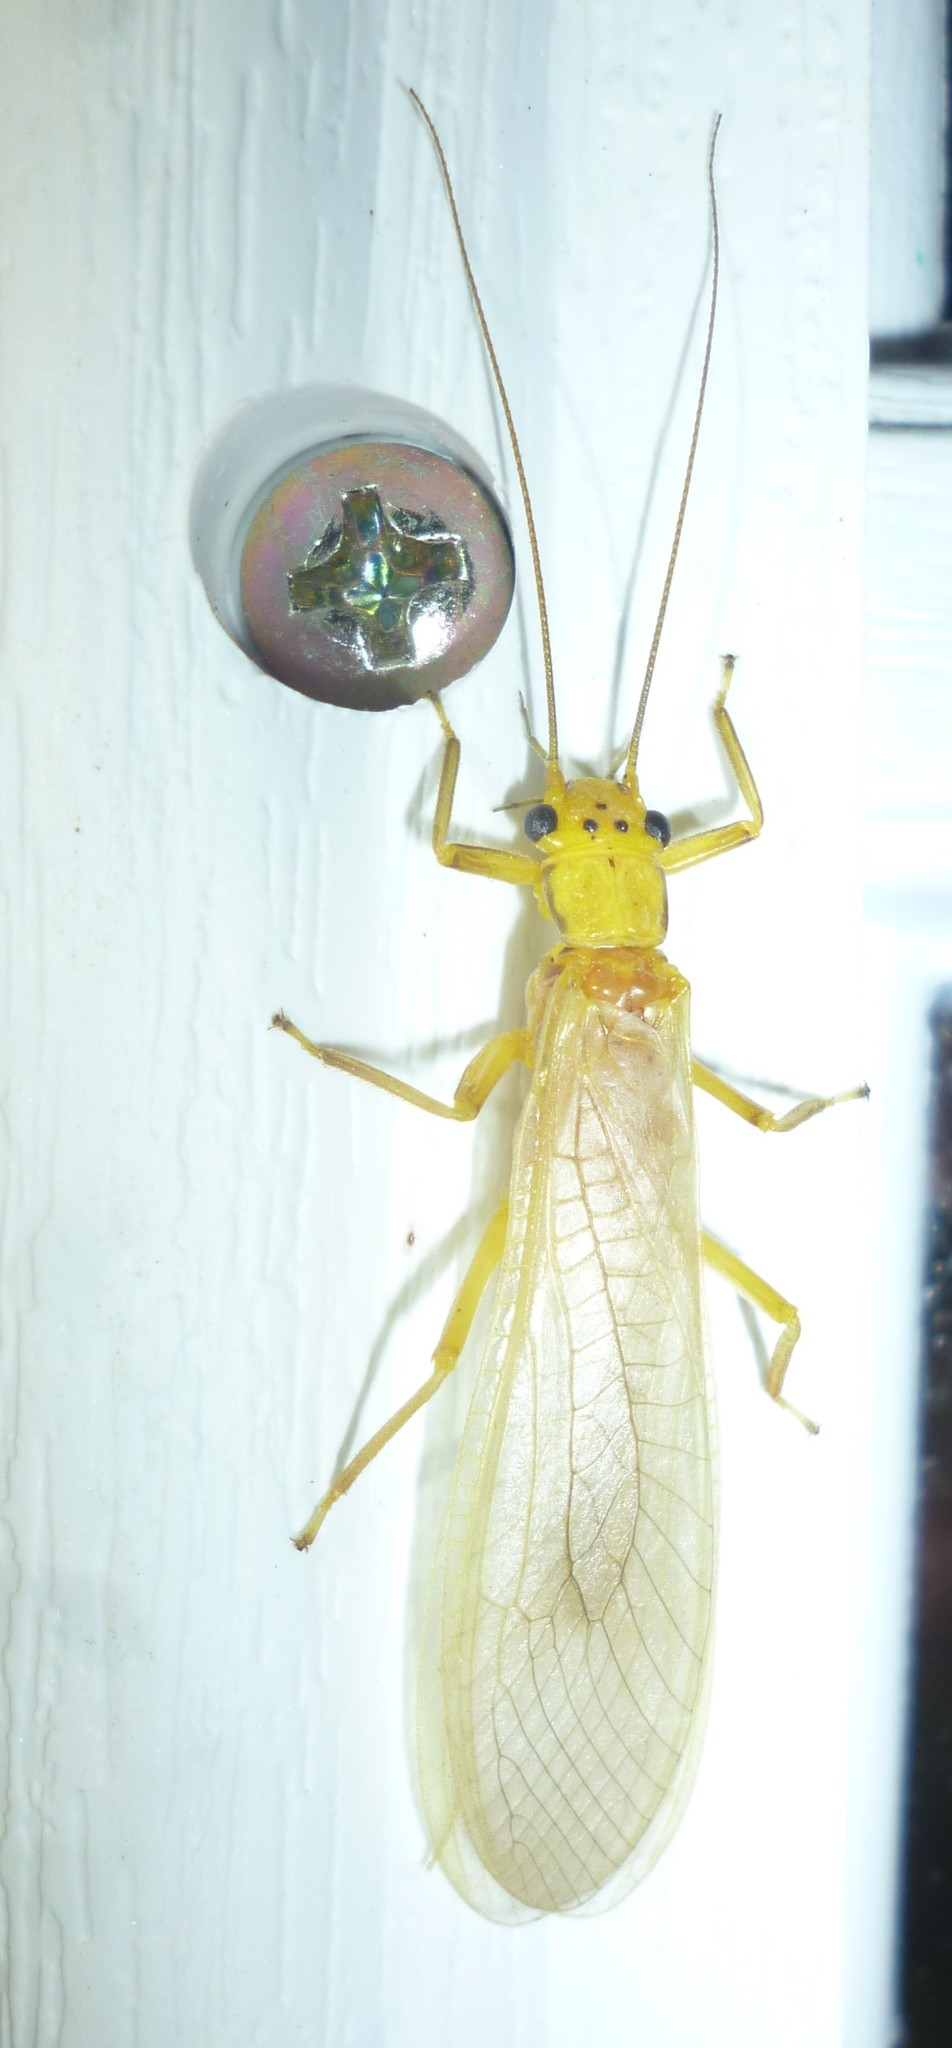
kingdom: Animalia
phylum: Arthropoda
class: Insecta
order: Plecoptera
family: Perlidae
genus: Eccoptura
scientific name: Eccoptura xanthenes
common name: Yellow stone
